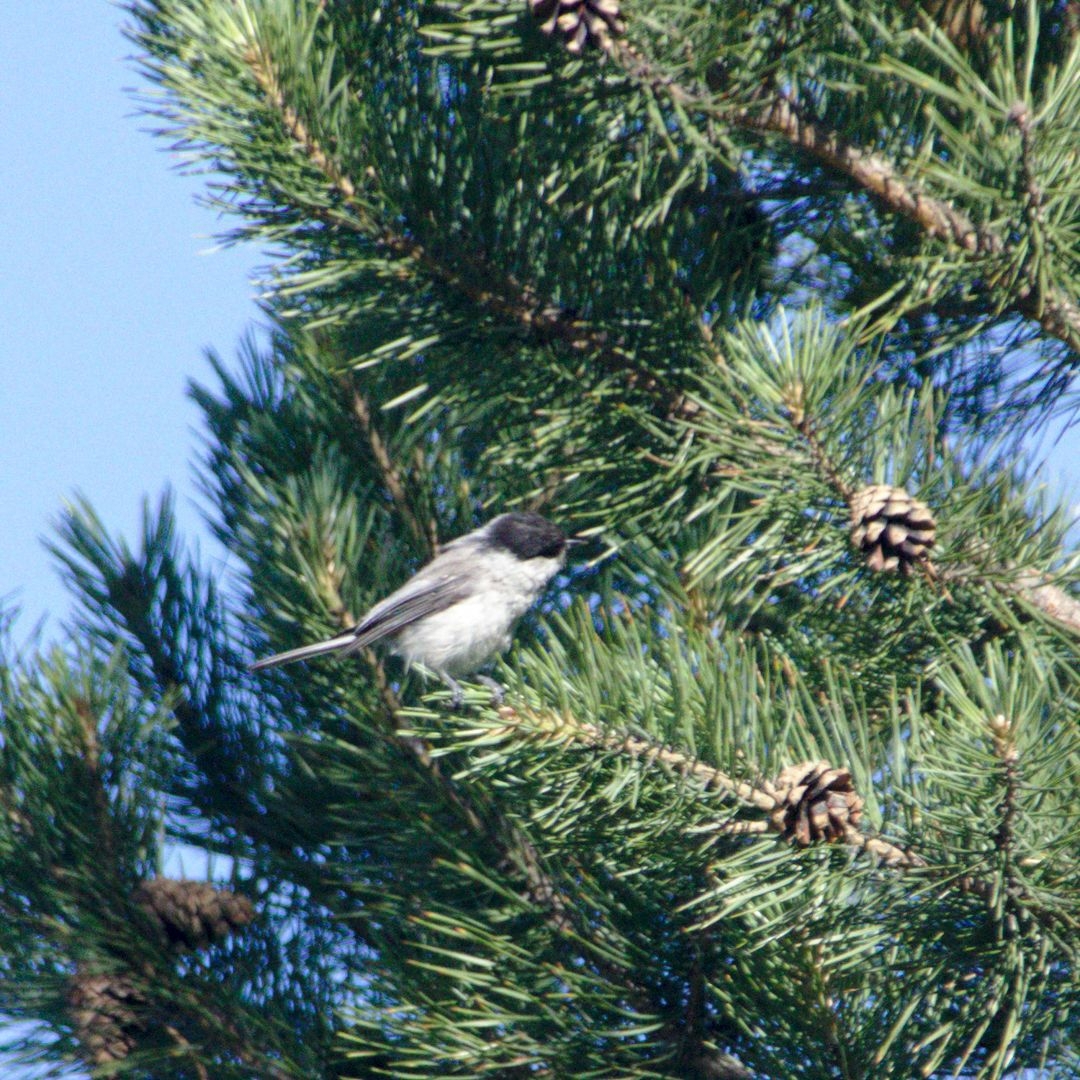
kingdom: Animalia
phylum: Chordata
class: Aves
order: Passeriformes
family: Paridae
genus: Poecile
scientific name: Poecile montanus
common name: Willow tit
